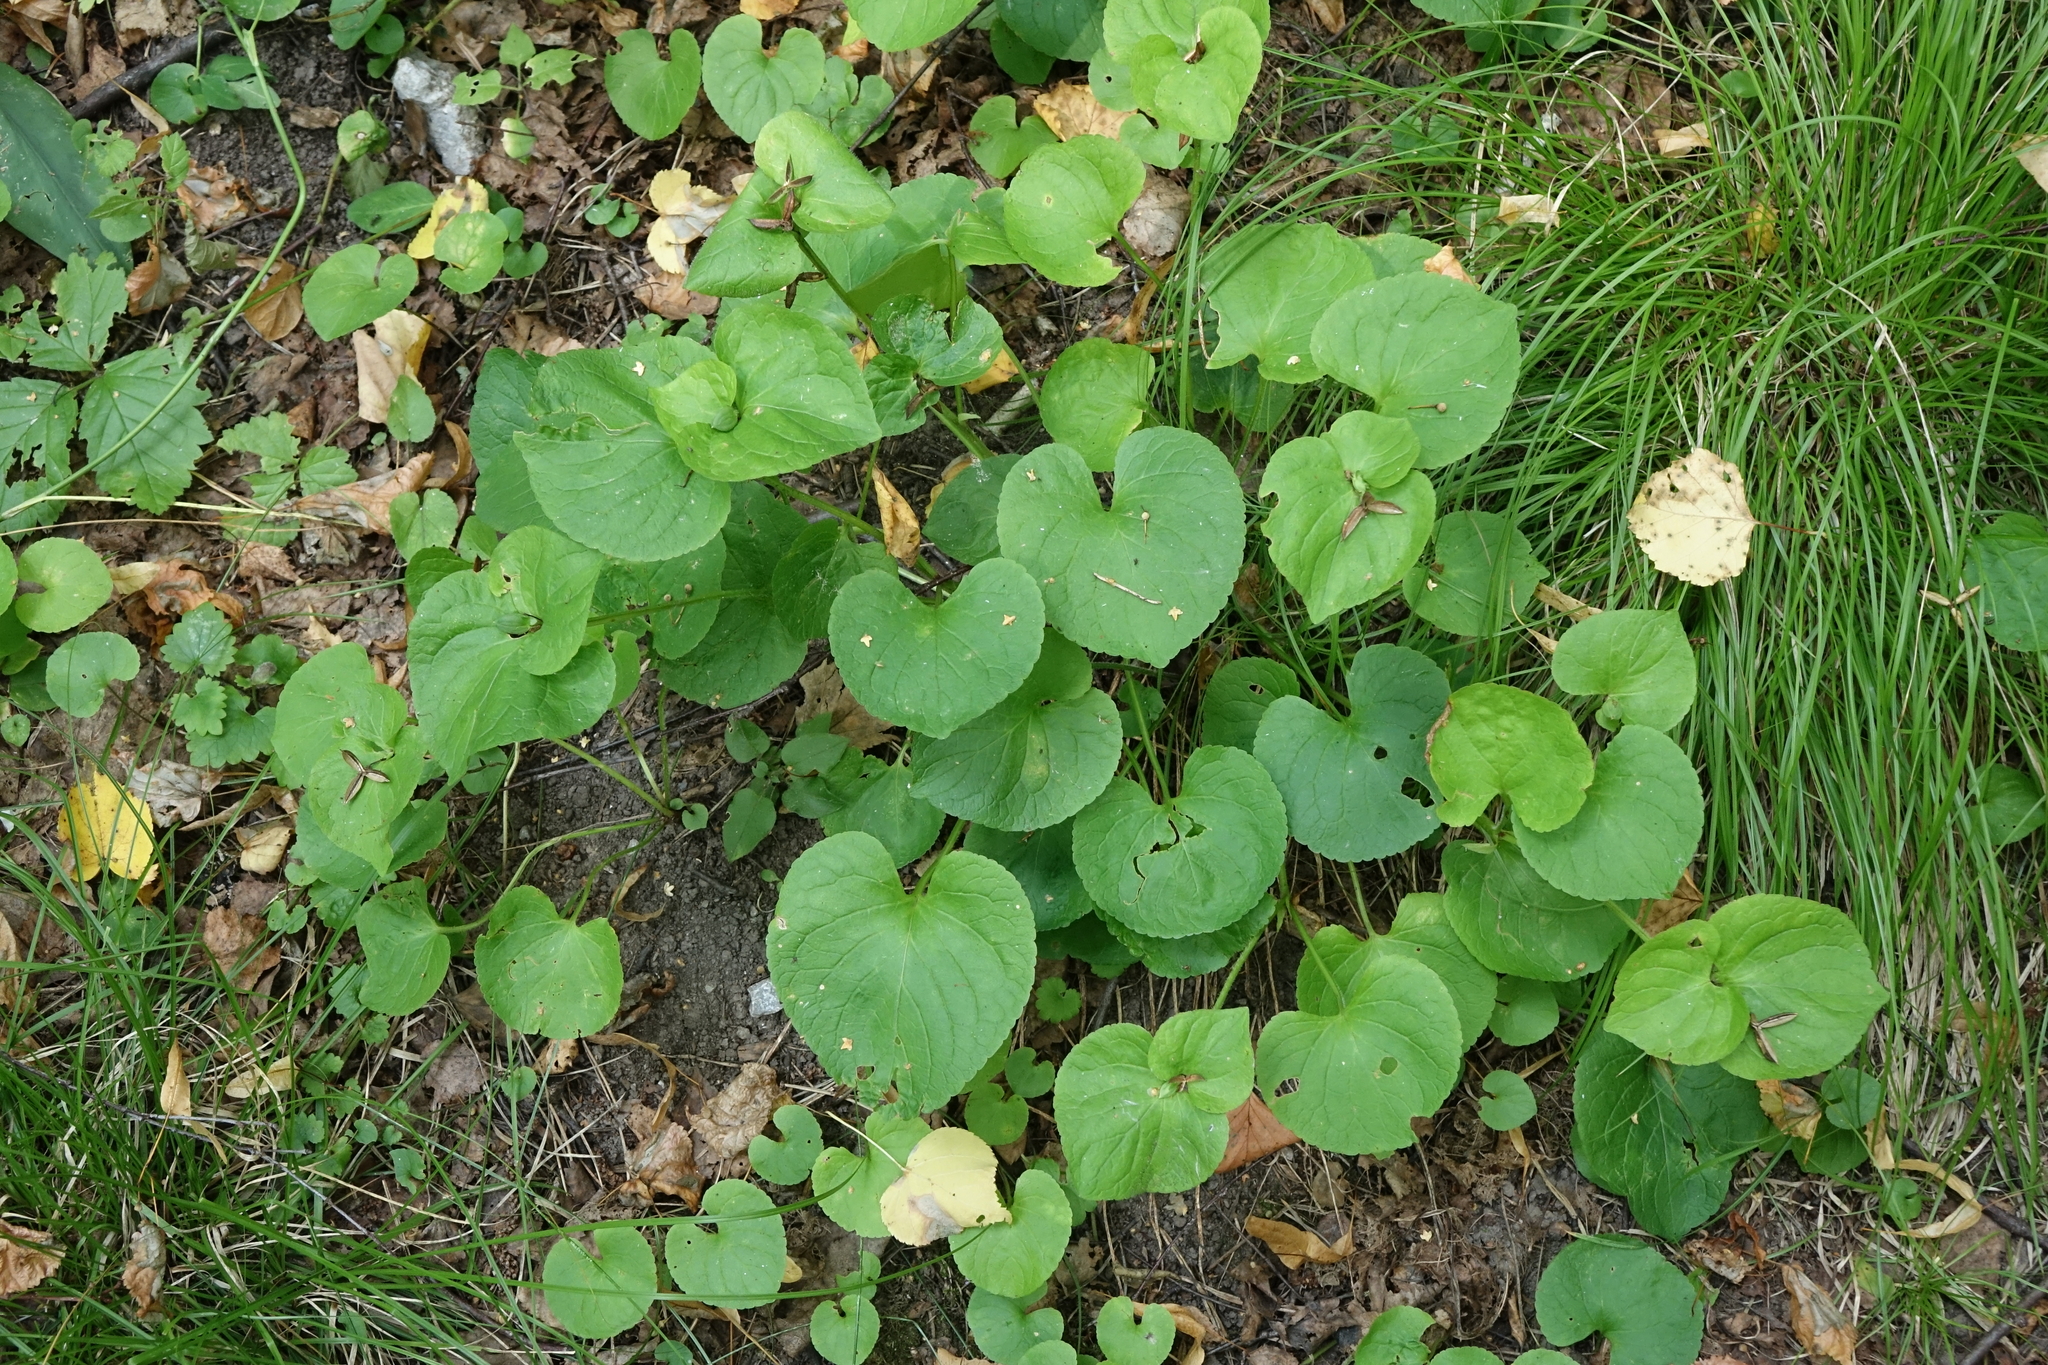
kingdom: Plantae
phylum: Tracheophyta
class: Magnoliopsida
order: Malpighiales
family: Violaceae
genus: Viola
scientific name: Viola mirabilis
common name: Wonder violet
